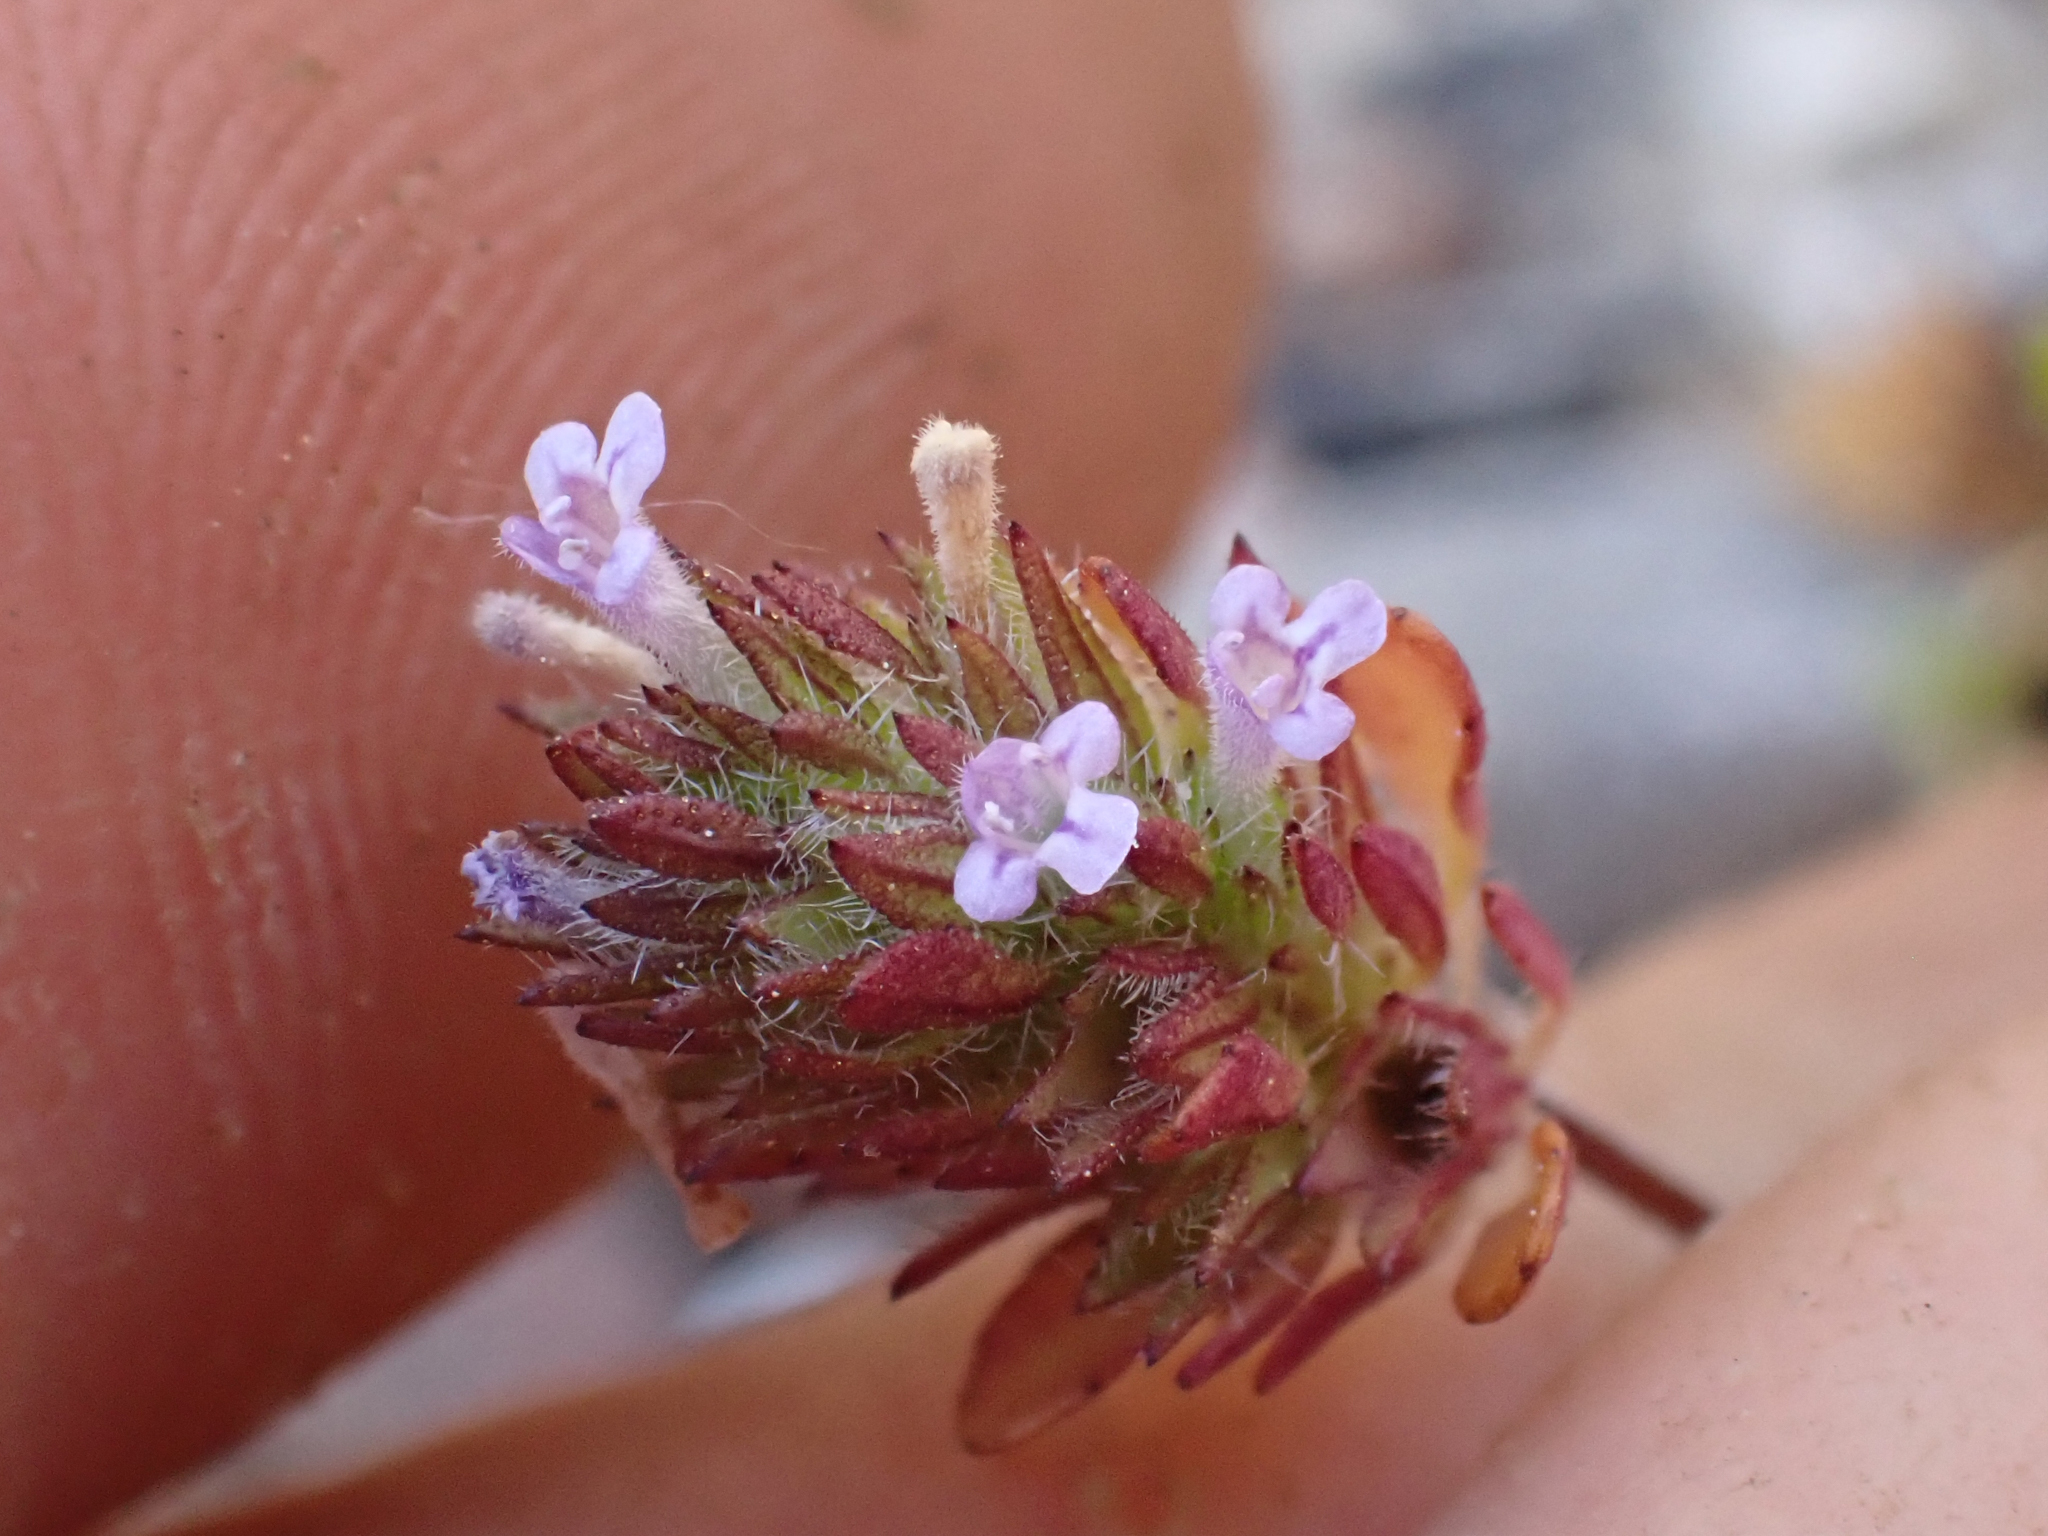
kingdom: Plantae
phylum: Tracheophyta
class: Magnoliopsida
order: Lamiales
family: Lamiaceae
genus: Pogogyne
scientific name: Pogogyne serpylloides
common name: Thymeleaf mesamint
